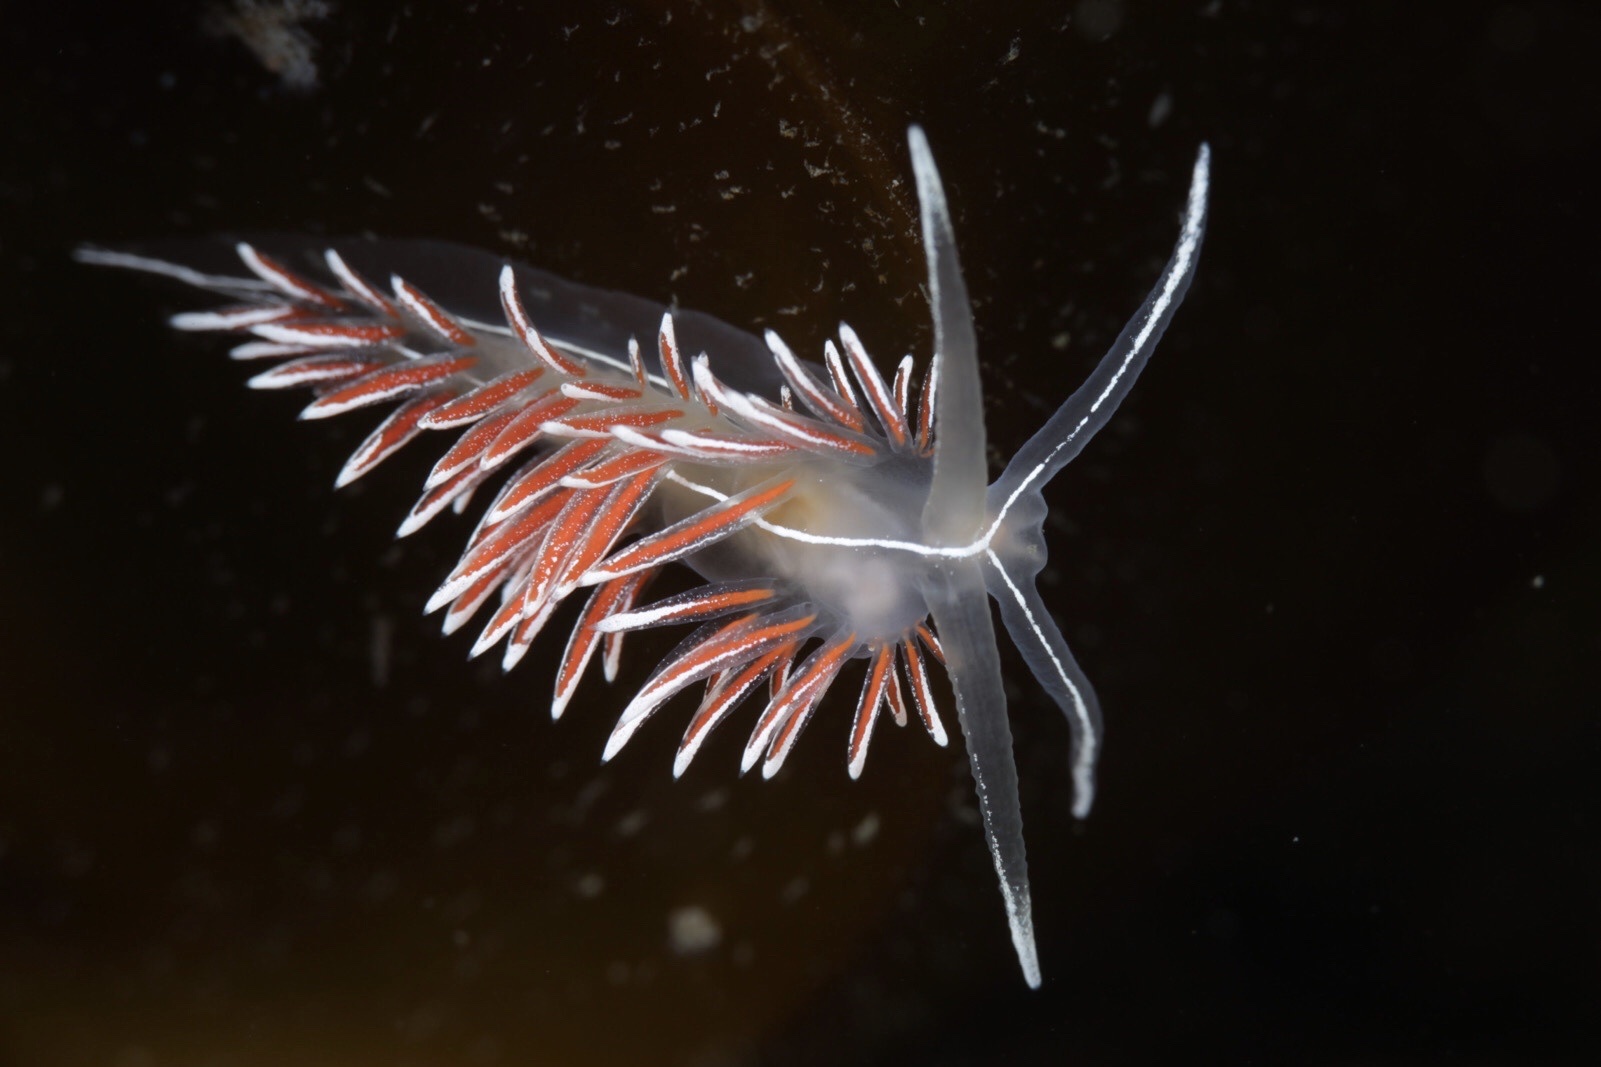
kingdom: Animalia
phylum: Mollusca
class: Gastropoda
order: Nudibranchia
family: Coryphellidae
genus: Coryphella
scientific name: Coryphella lineata
